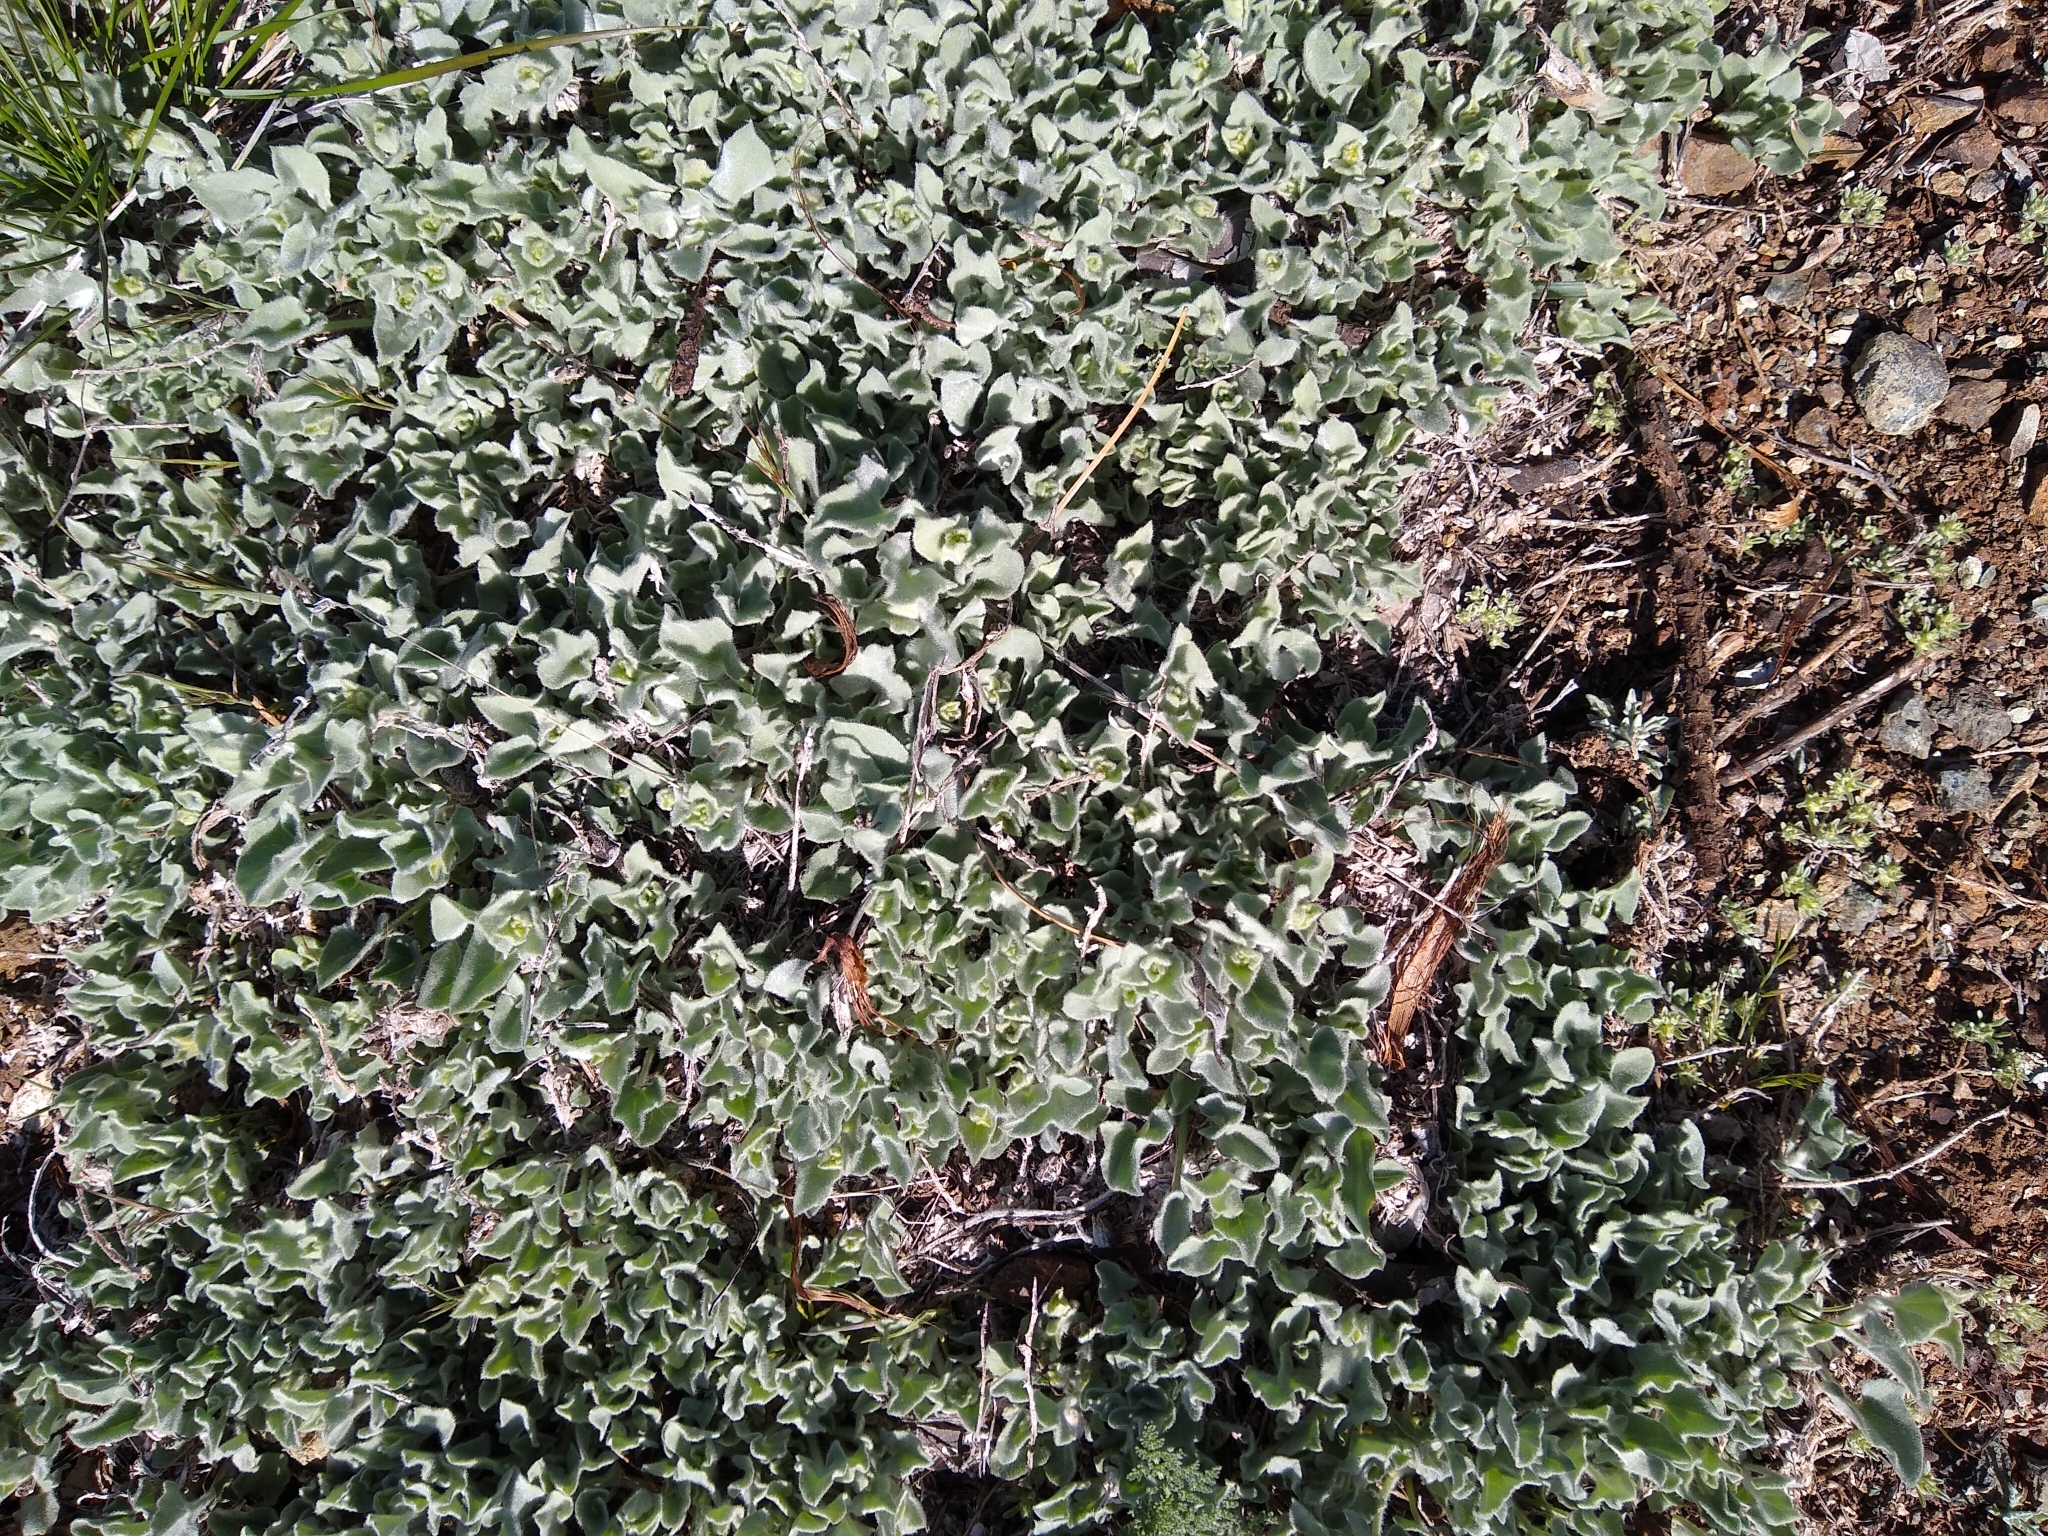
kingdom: Plantae
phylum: Tracheophyta
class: Magnoliopsida
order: Solanales
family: Convolvulaceae
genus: Calystegia
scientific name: Calystegia malacophylla
